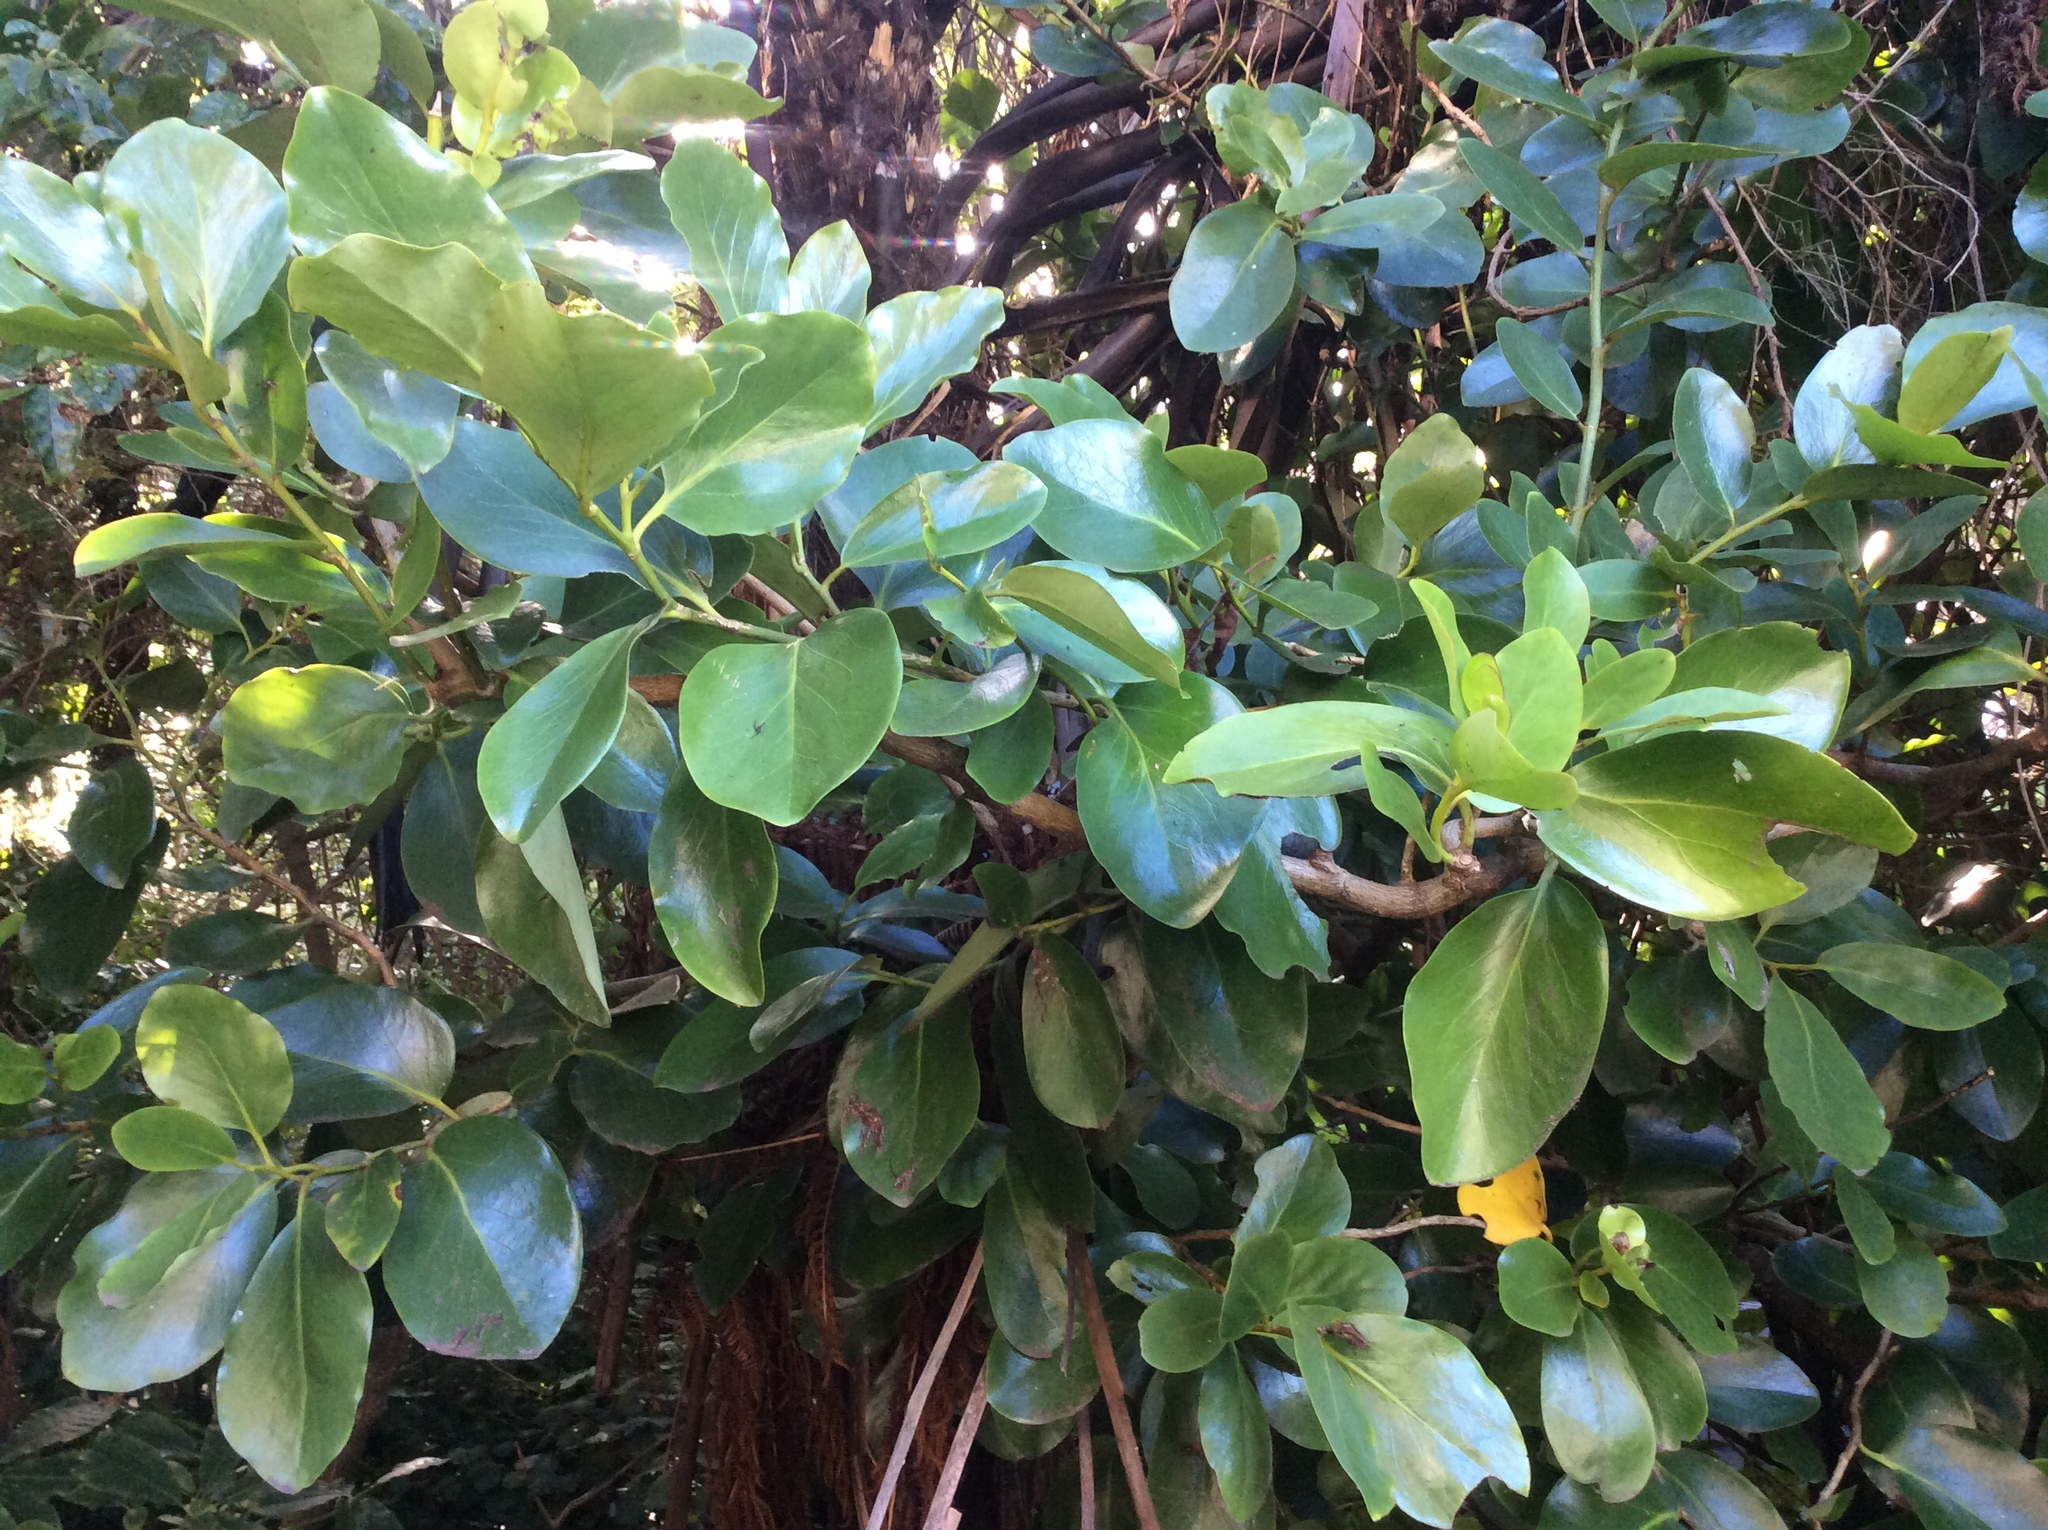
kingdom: Plantae
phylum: Tracheophyta
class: Magnoliopsida
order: Apiales
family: Griseliniaceae
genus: Griselinia
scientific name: Griselinia lucida
